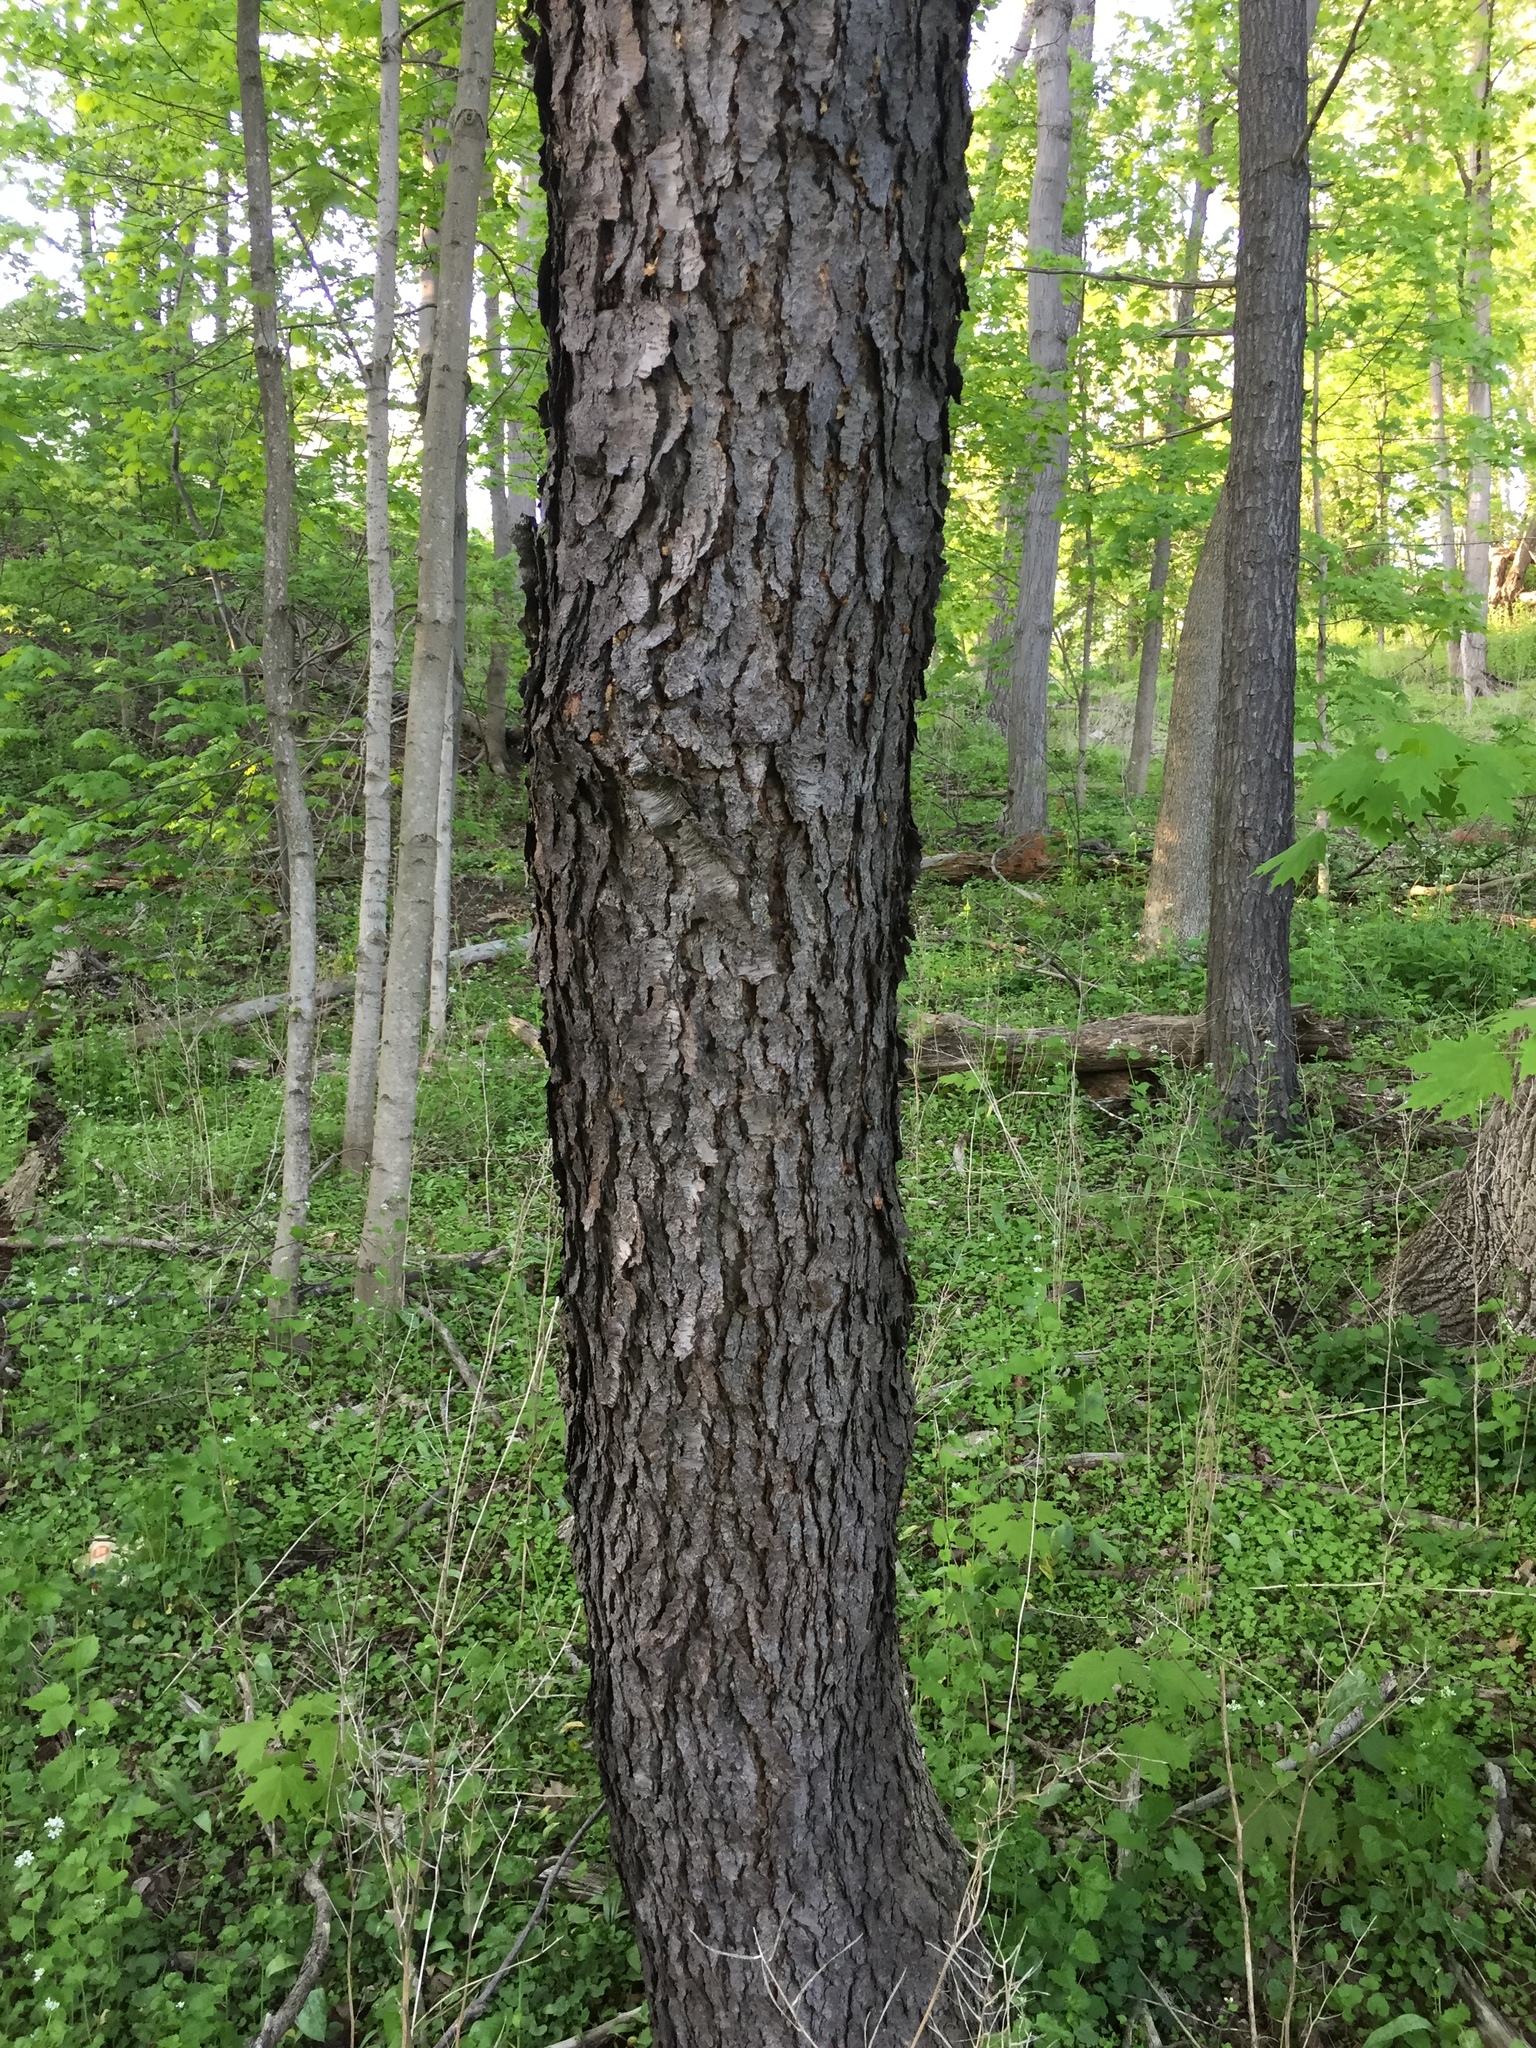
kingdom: Plantae
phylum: Tracheophyta
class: Magnoliopsida
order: Rosales
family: Rosaceae
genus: Prunus
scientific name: Prunus serotina
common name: Black cherry
